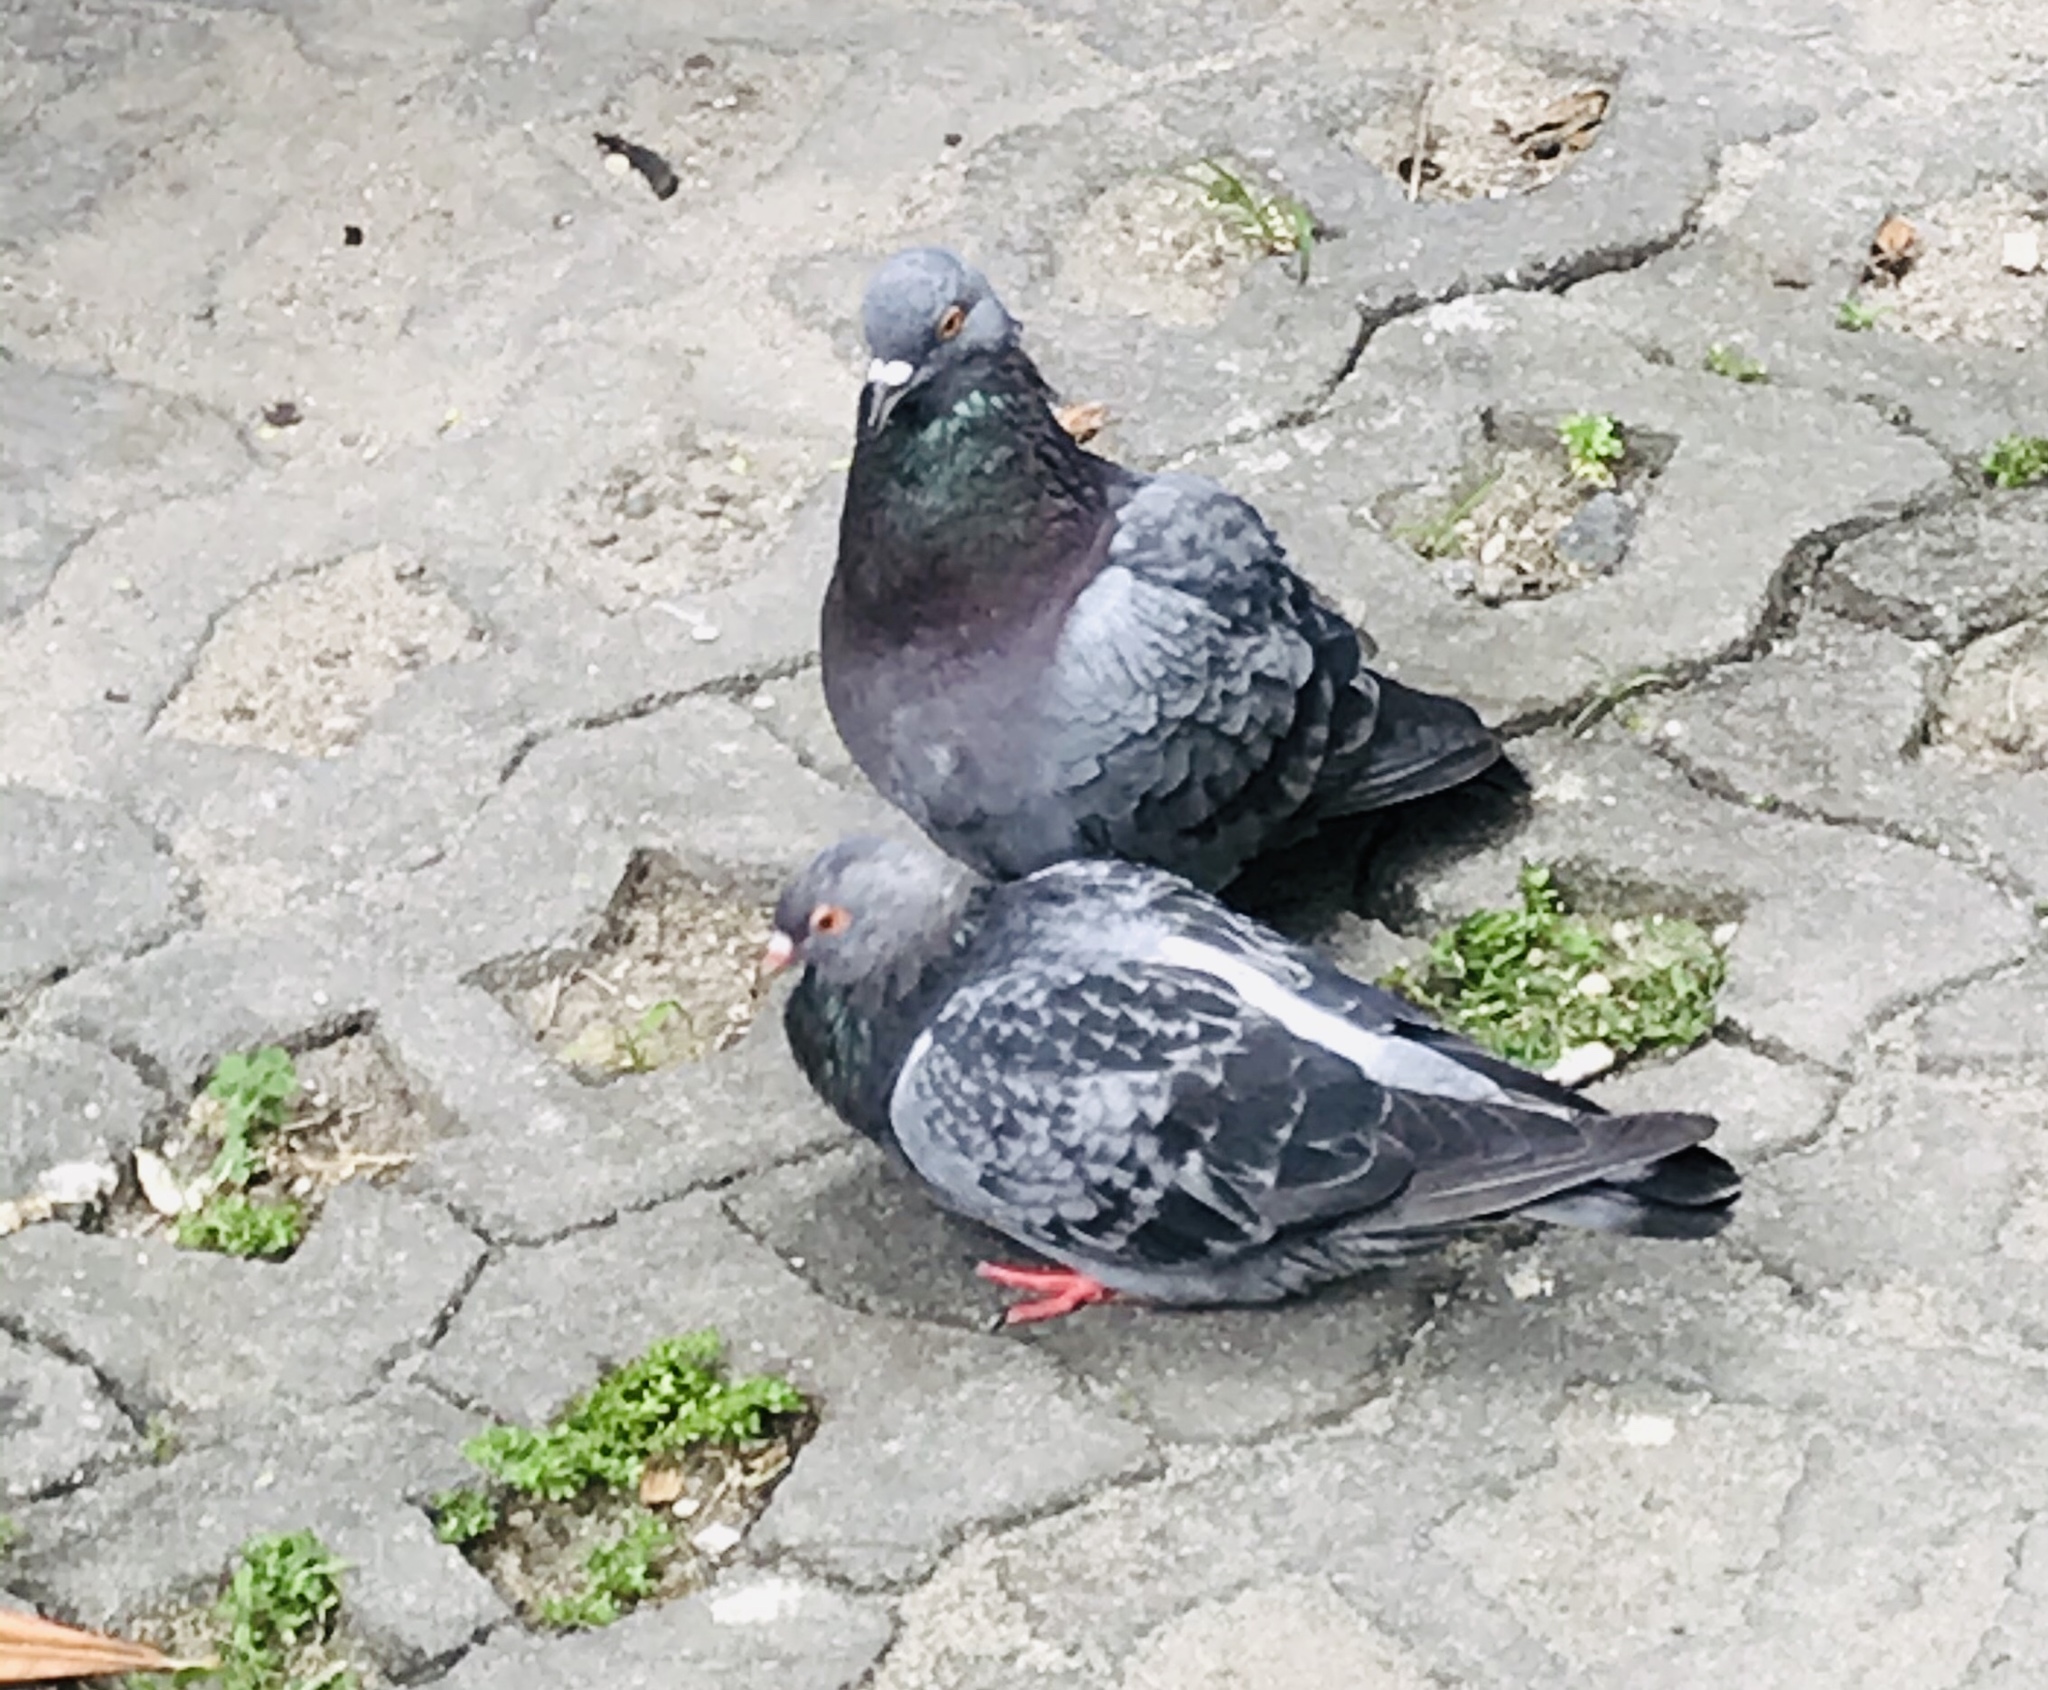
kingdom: Animalia
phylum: Chordata
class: Aves
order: Columbiformes
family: Columbidae
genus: Columba
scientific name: Columba livia
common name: Rock pigeon
